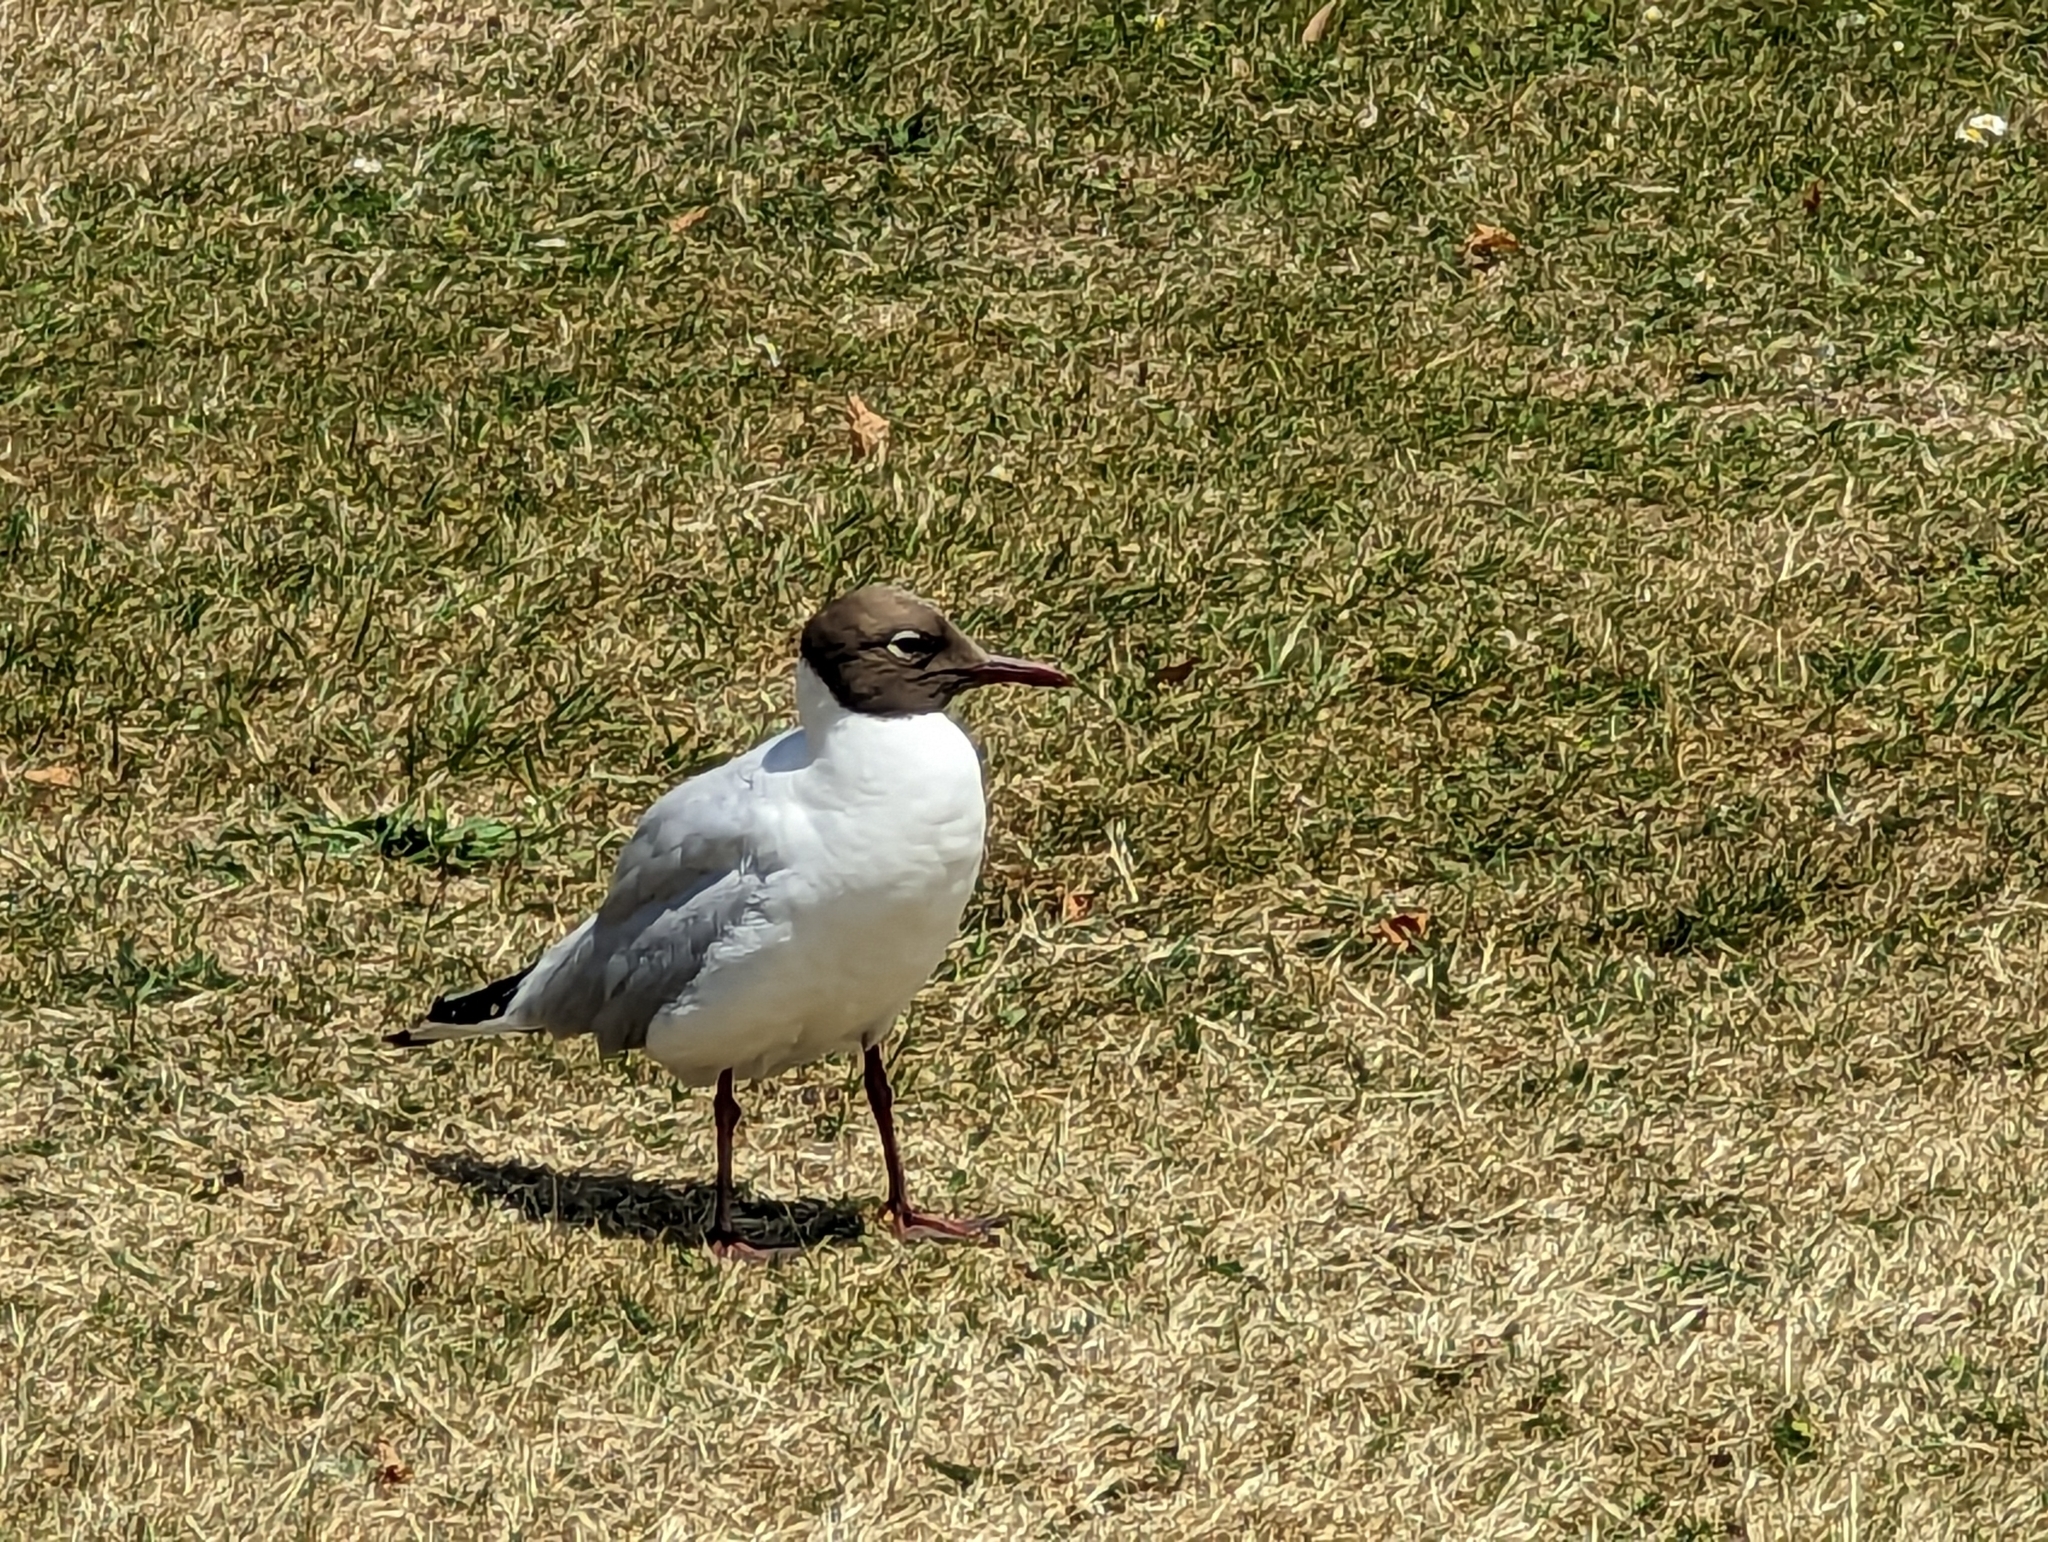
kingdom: Animalia
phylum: Chordata
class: Aves
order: Charadriiformes
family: Laridae
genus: Chroicocephalus
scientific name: Chroicocephalus ridibundus
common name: Black-headed gull
